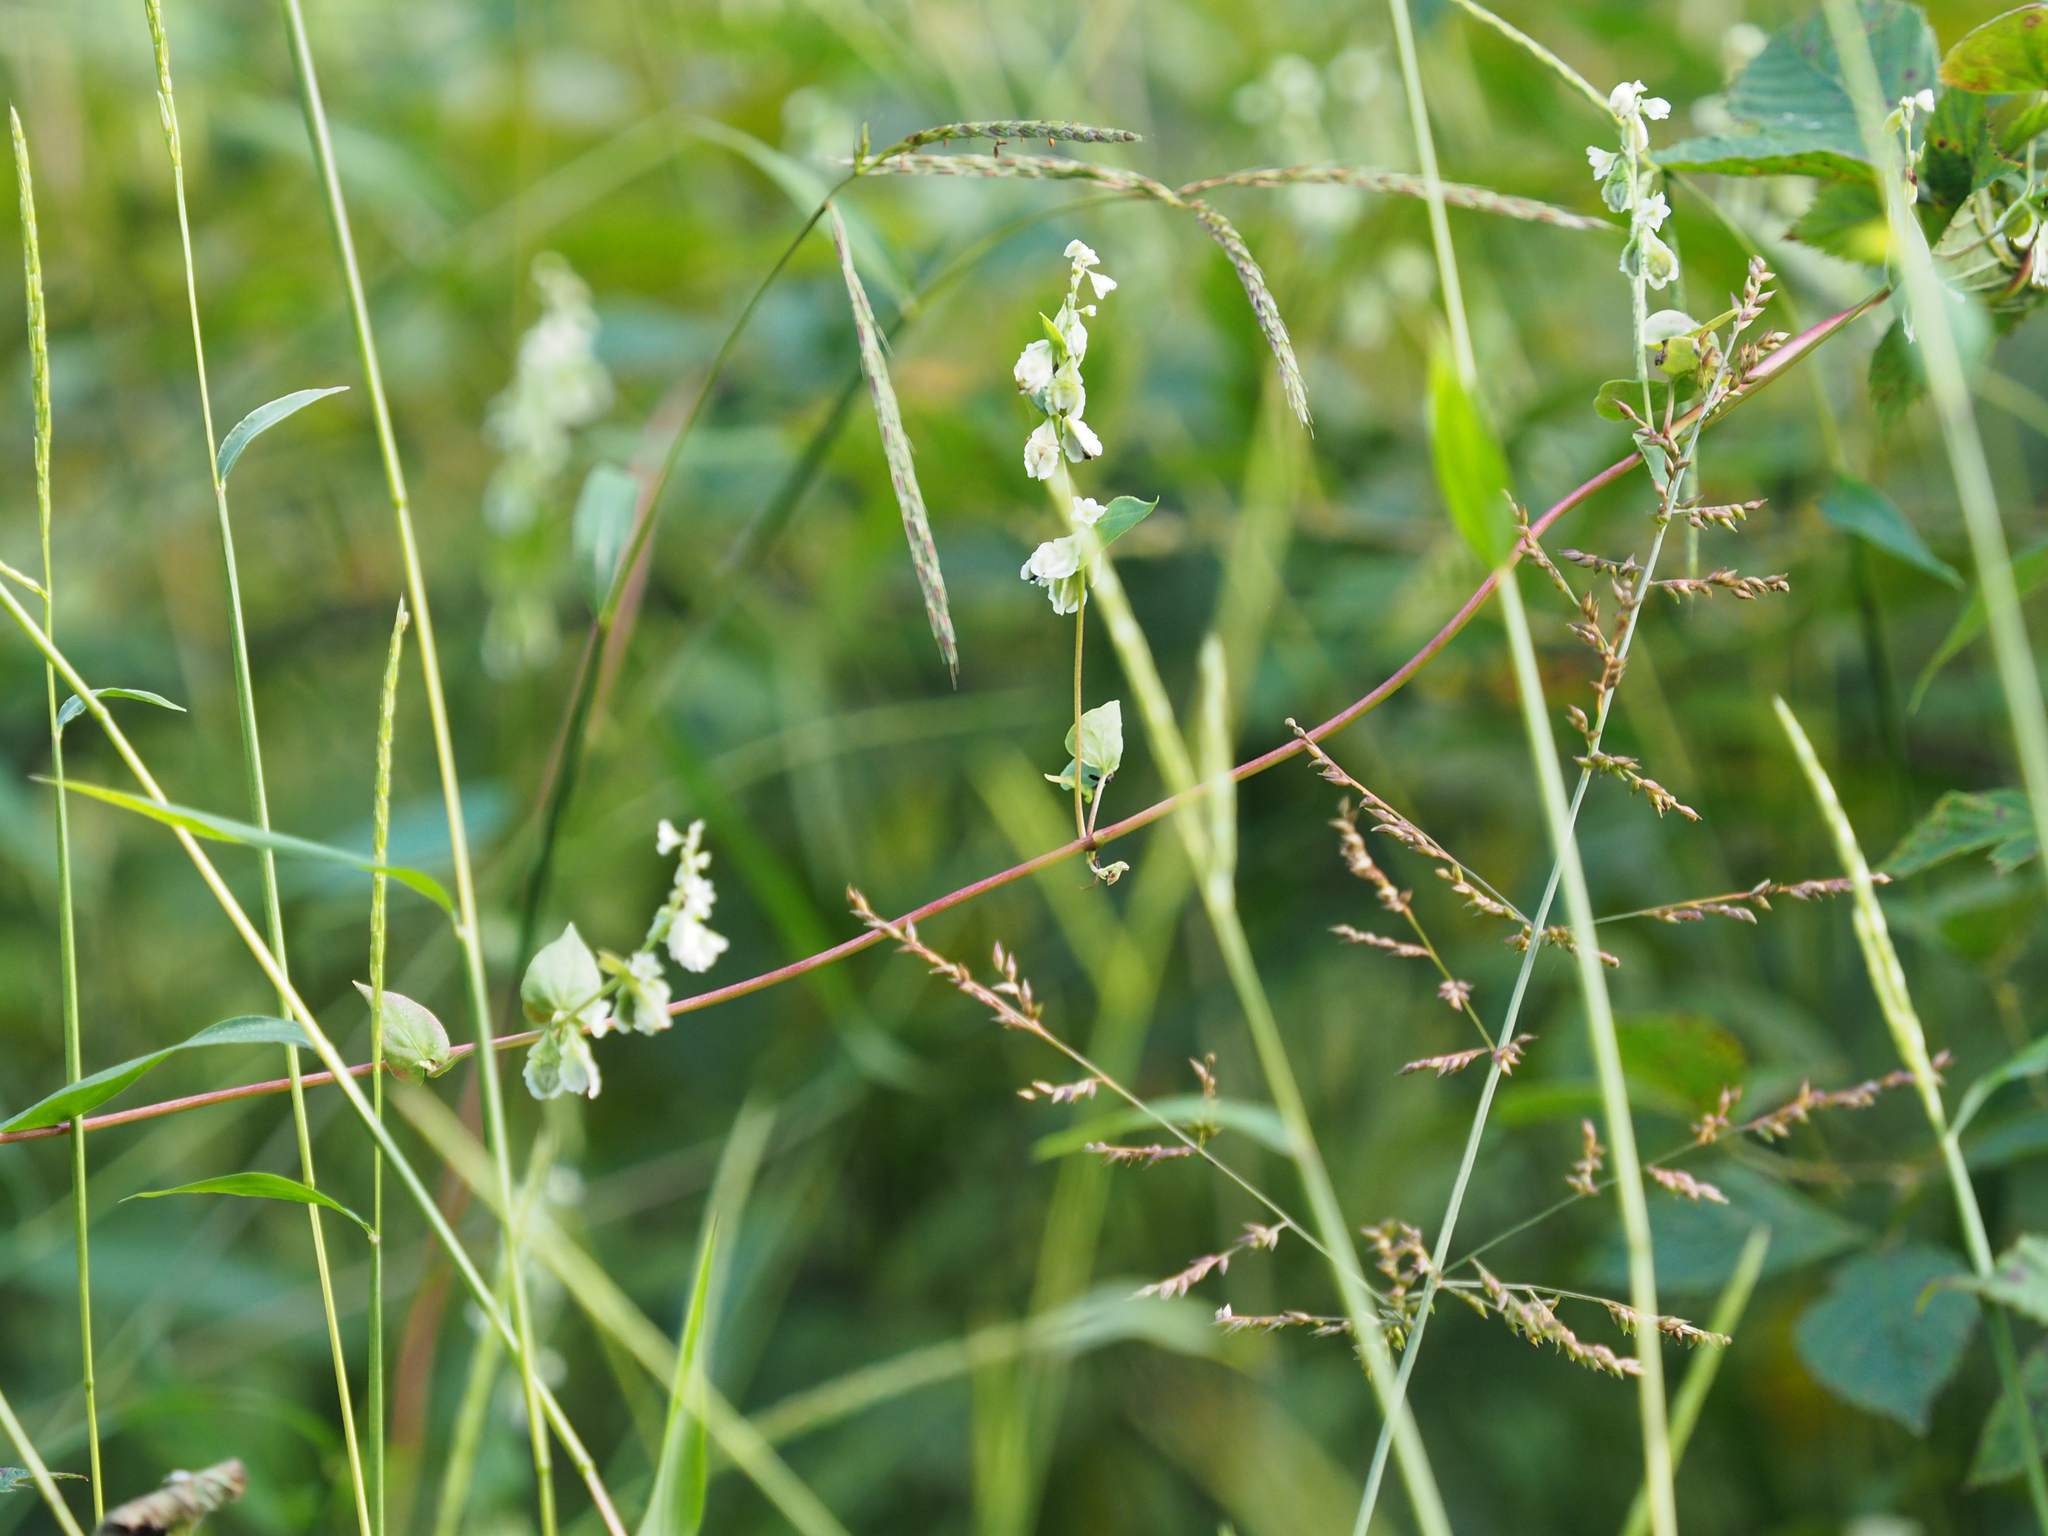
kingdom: Plantae
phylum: Tracheophyta
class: Magnoliopsida
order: Caryophyllales
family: Polygonaceae
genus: Fallopia
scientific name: Fallopia scandens
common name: Climbing false buckwheat
